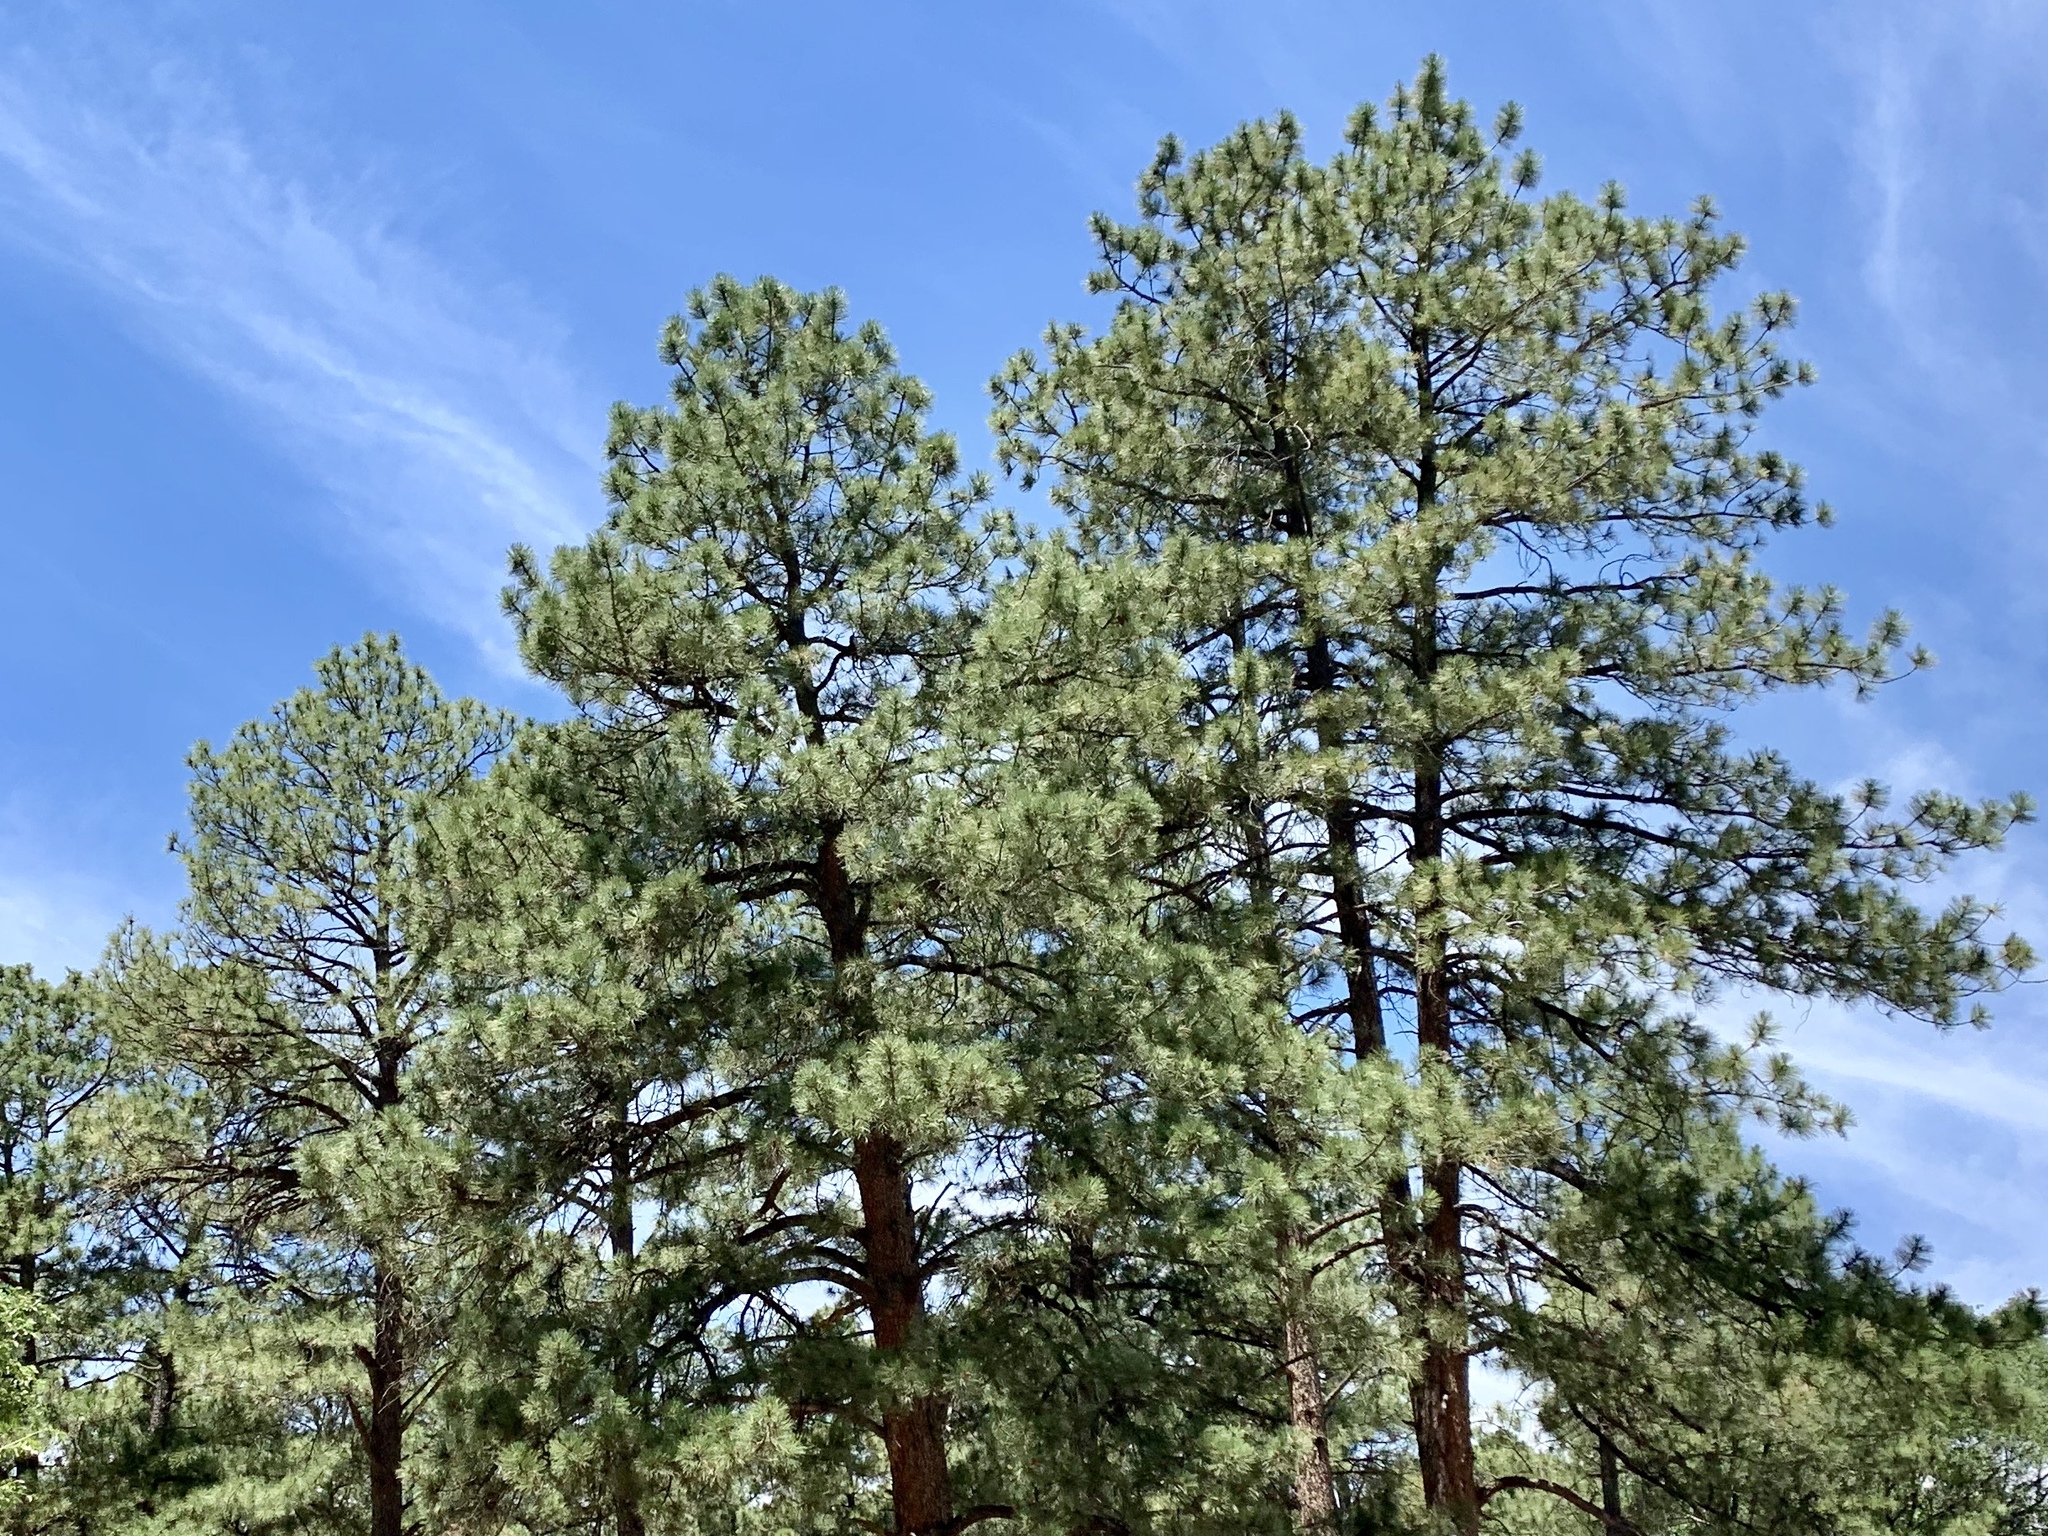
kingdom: Plantae
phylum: Tracheophyta
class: Pinopsida
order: Pinales
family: Pinaceae
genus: Pinus
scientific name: Pinus ponderosa
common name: Western yellow-pine
